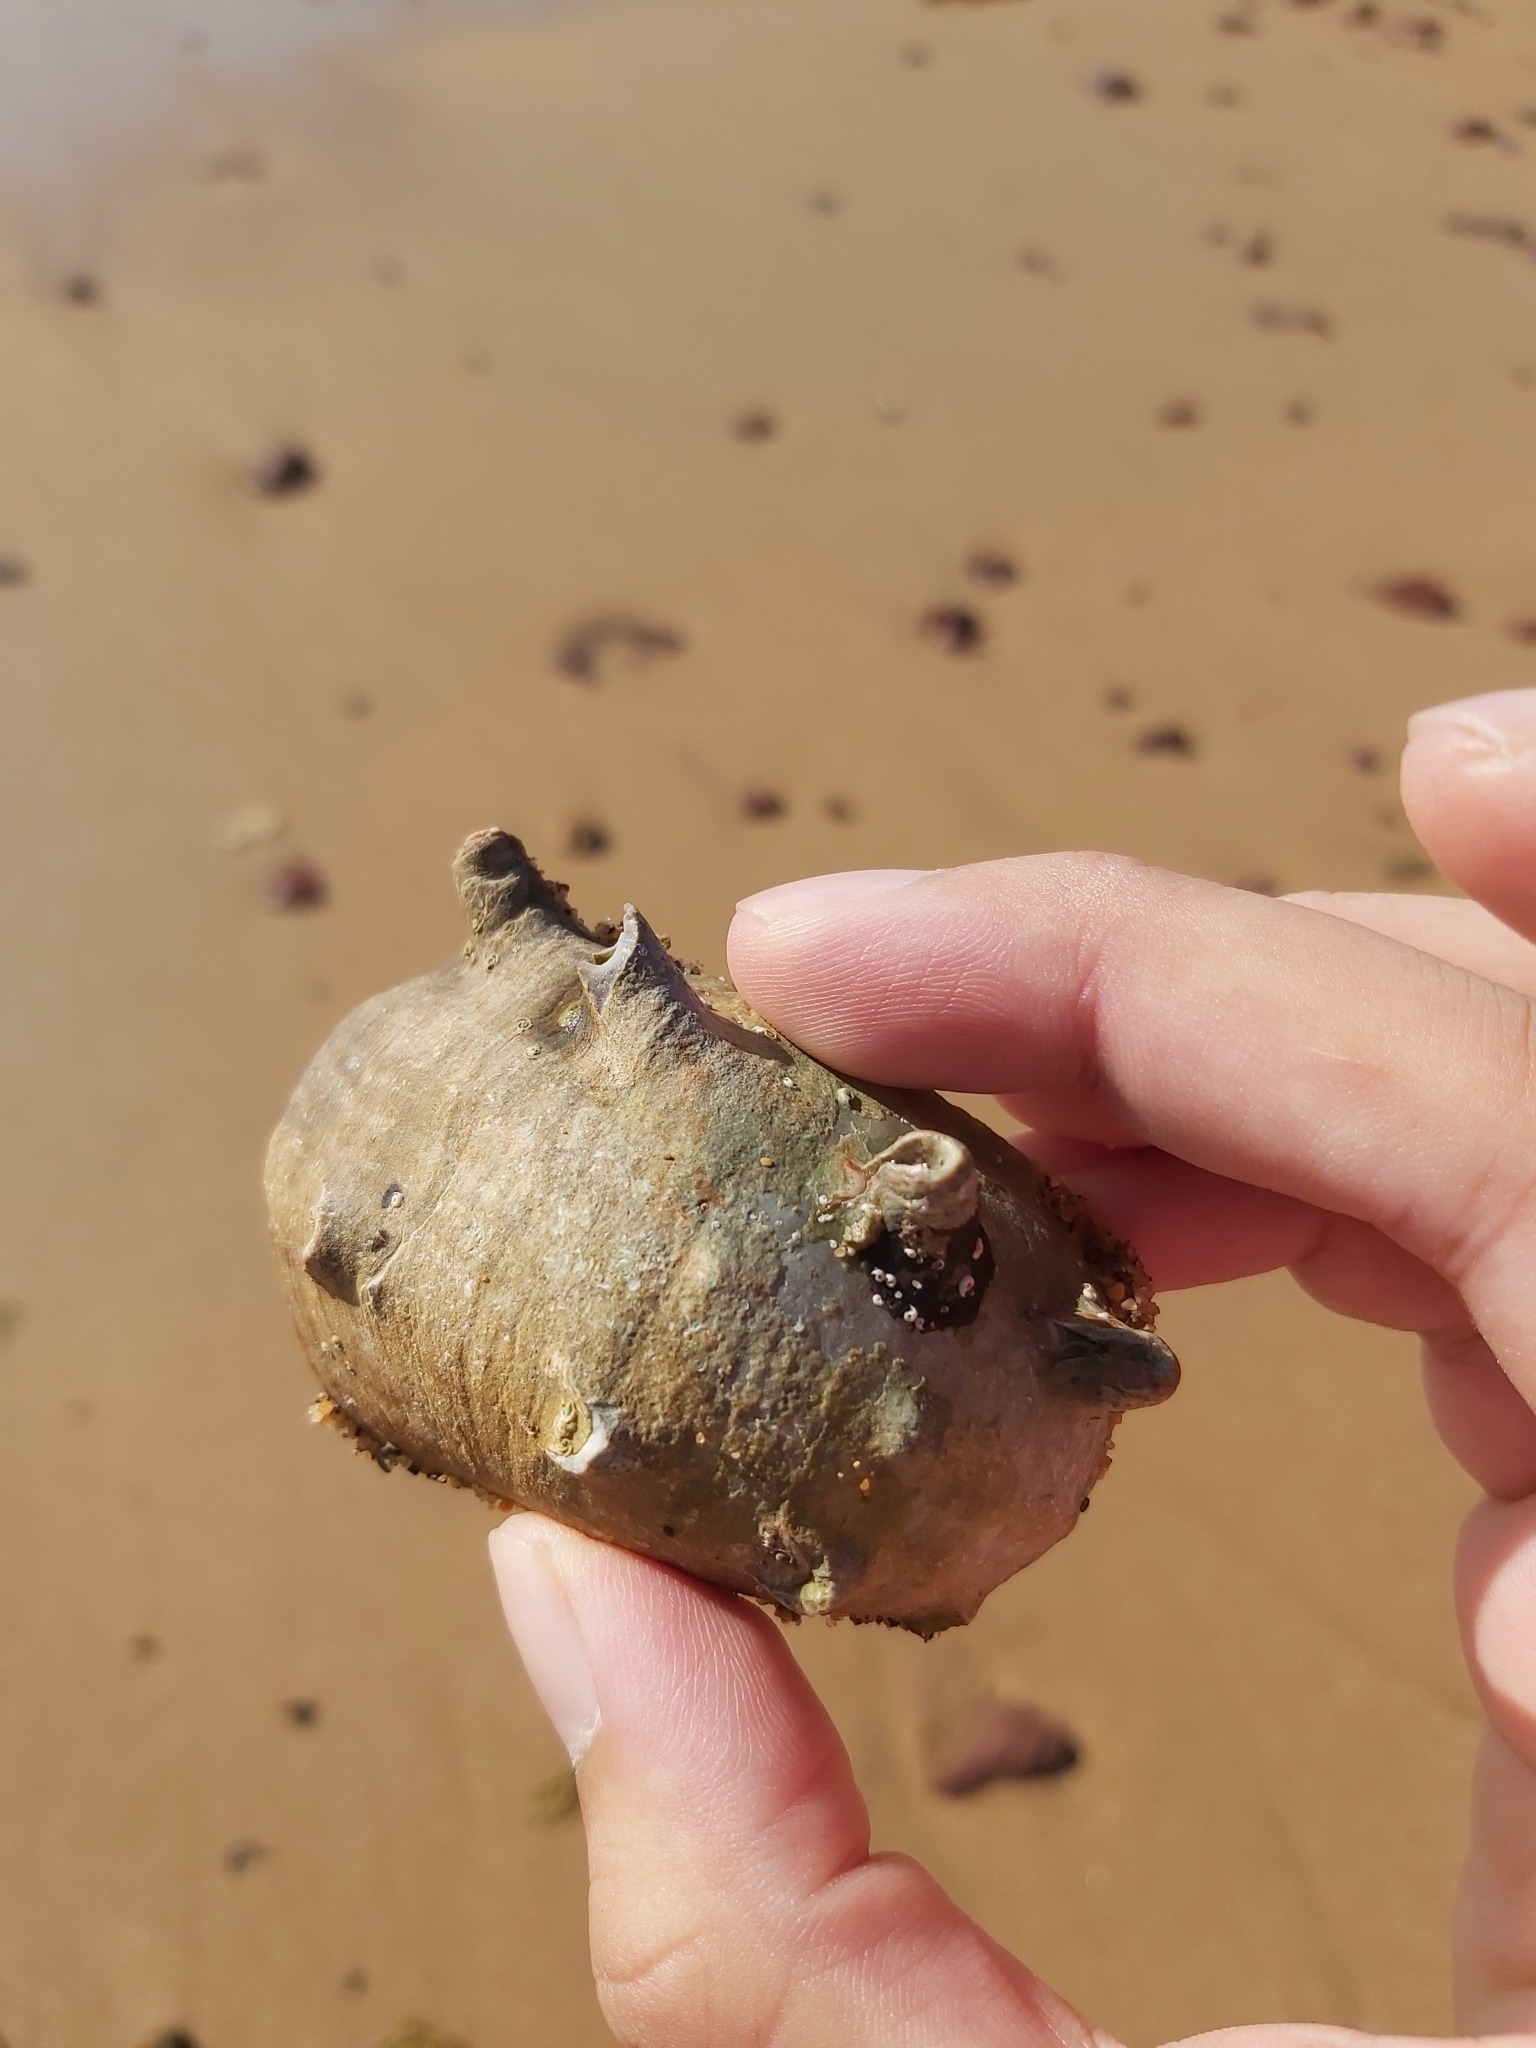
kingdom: Animalia
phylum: Mollusca
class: Gastropoda
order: Trochida
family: Turbinidae
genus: Turbo
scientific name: Turbo militaris
